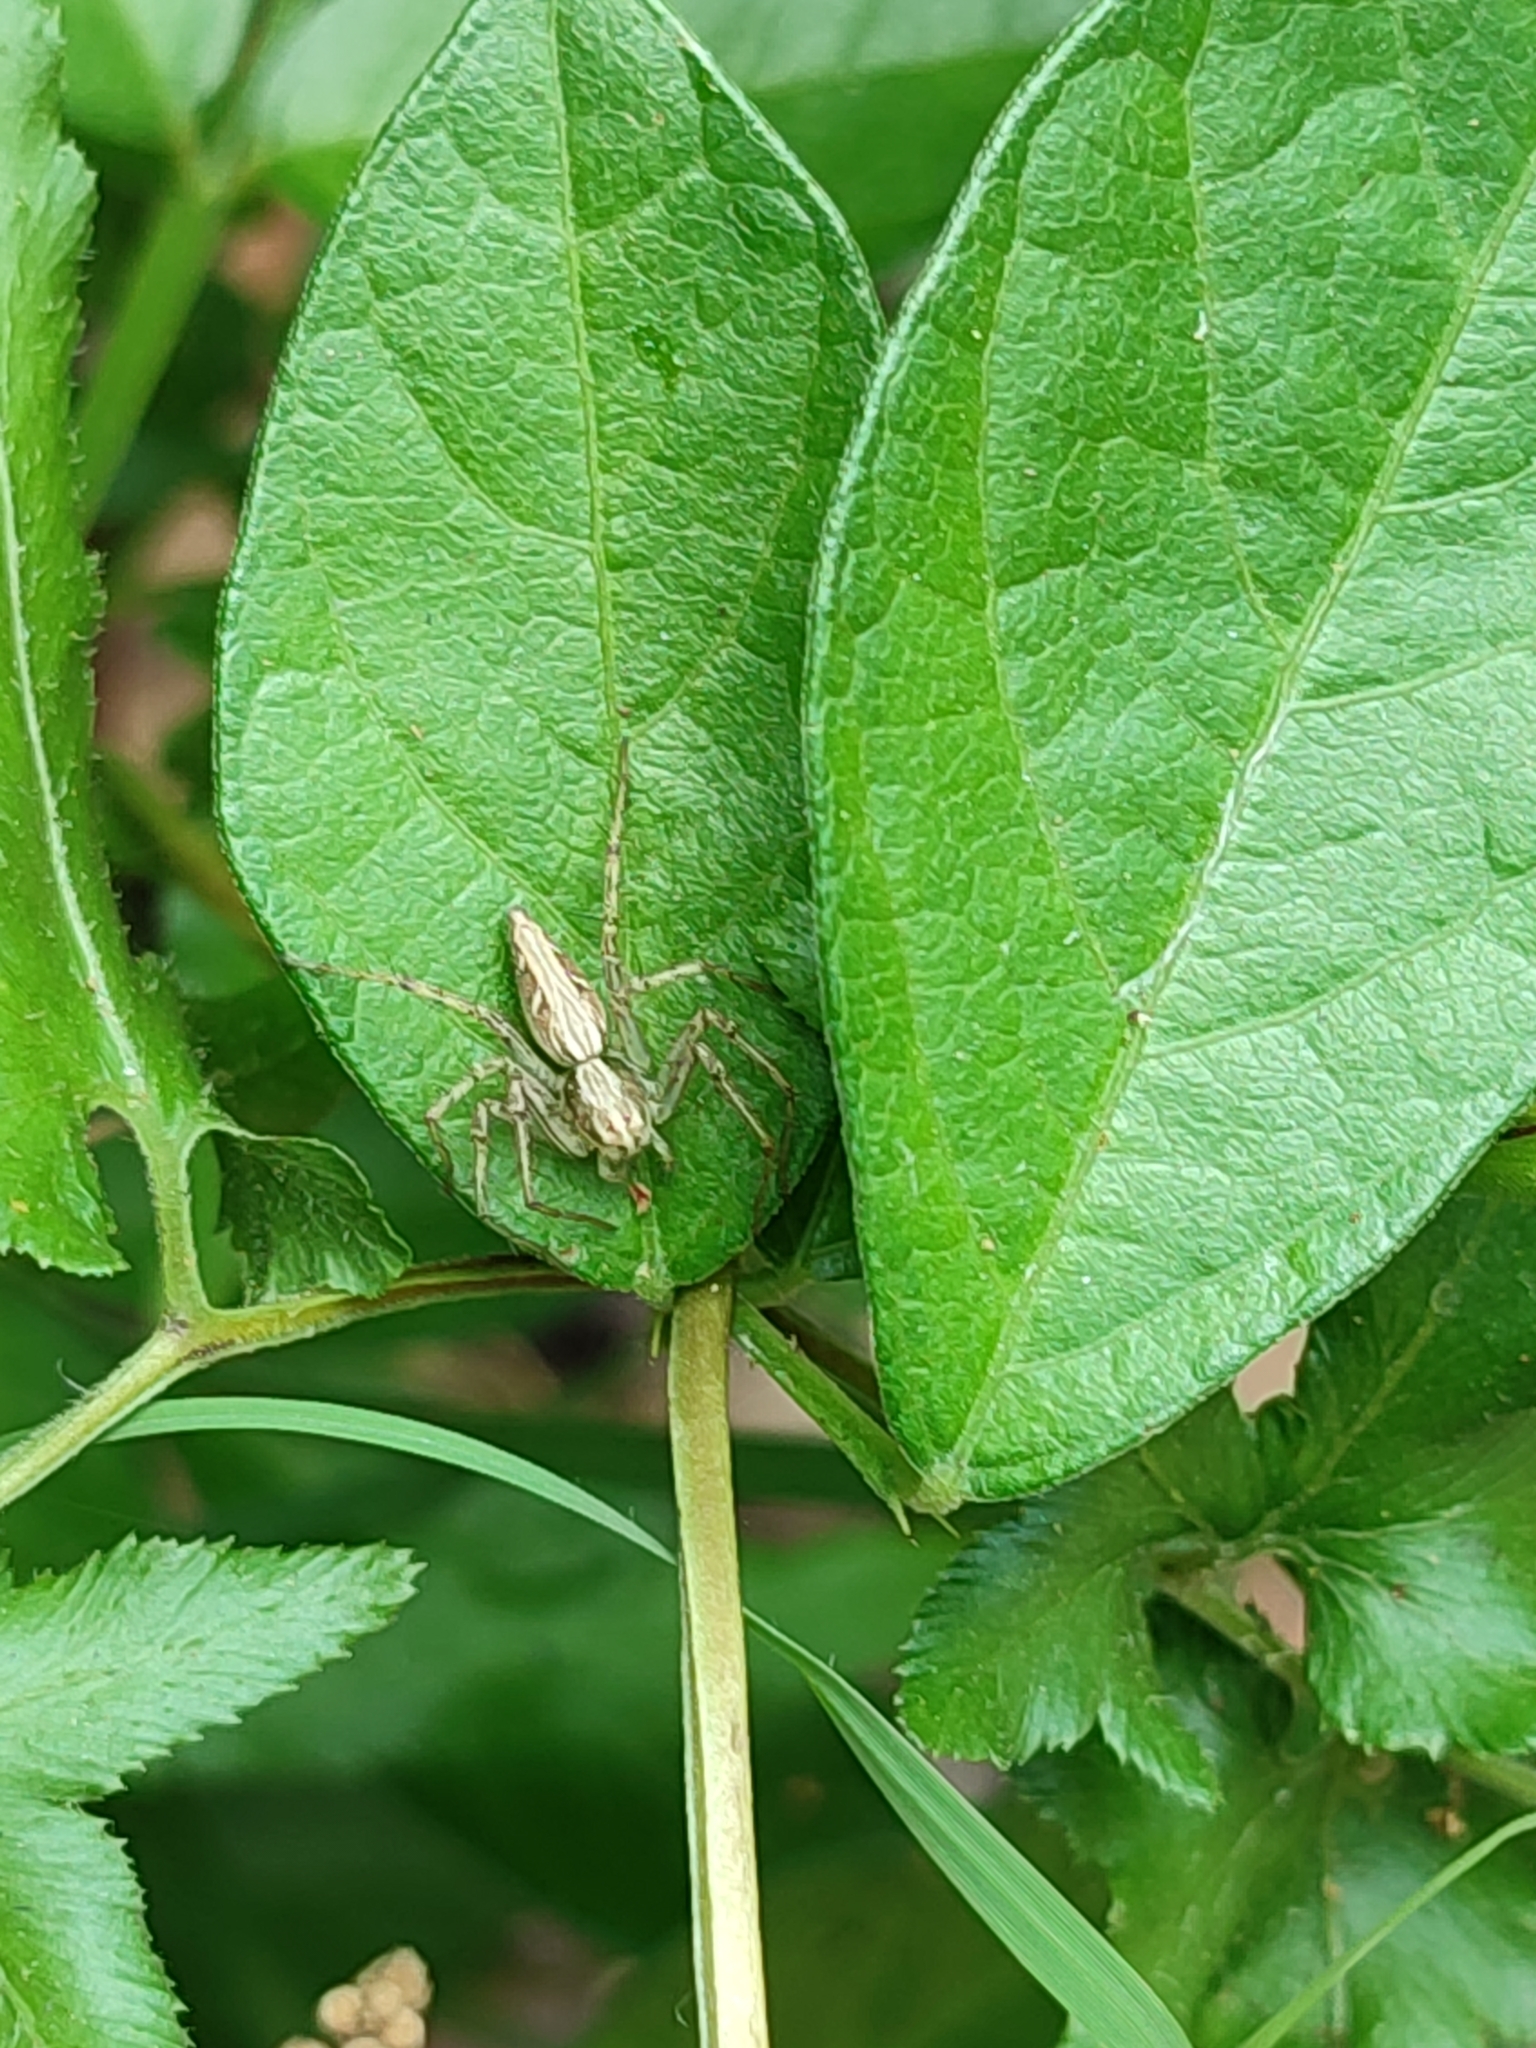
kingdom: Animalia
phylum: Arthropoda
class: Arachnida
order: Araneae
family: Oxyopidae
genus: Oxyopes
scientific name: Oxyopes sertatus
